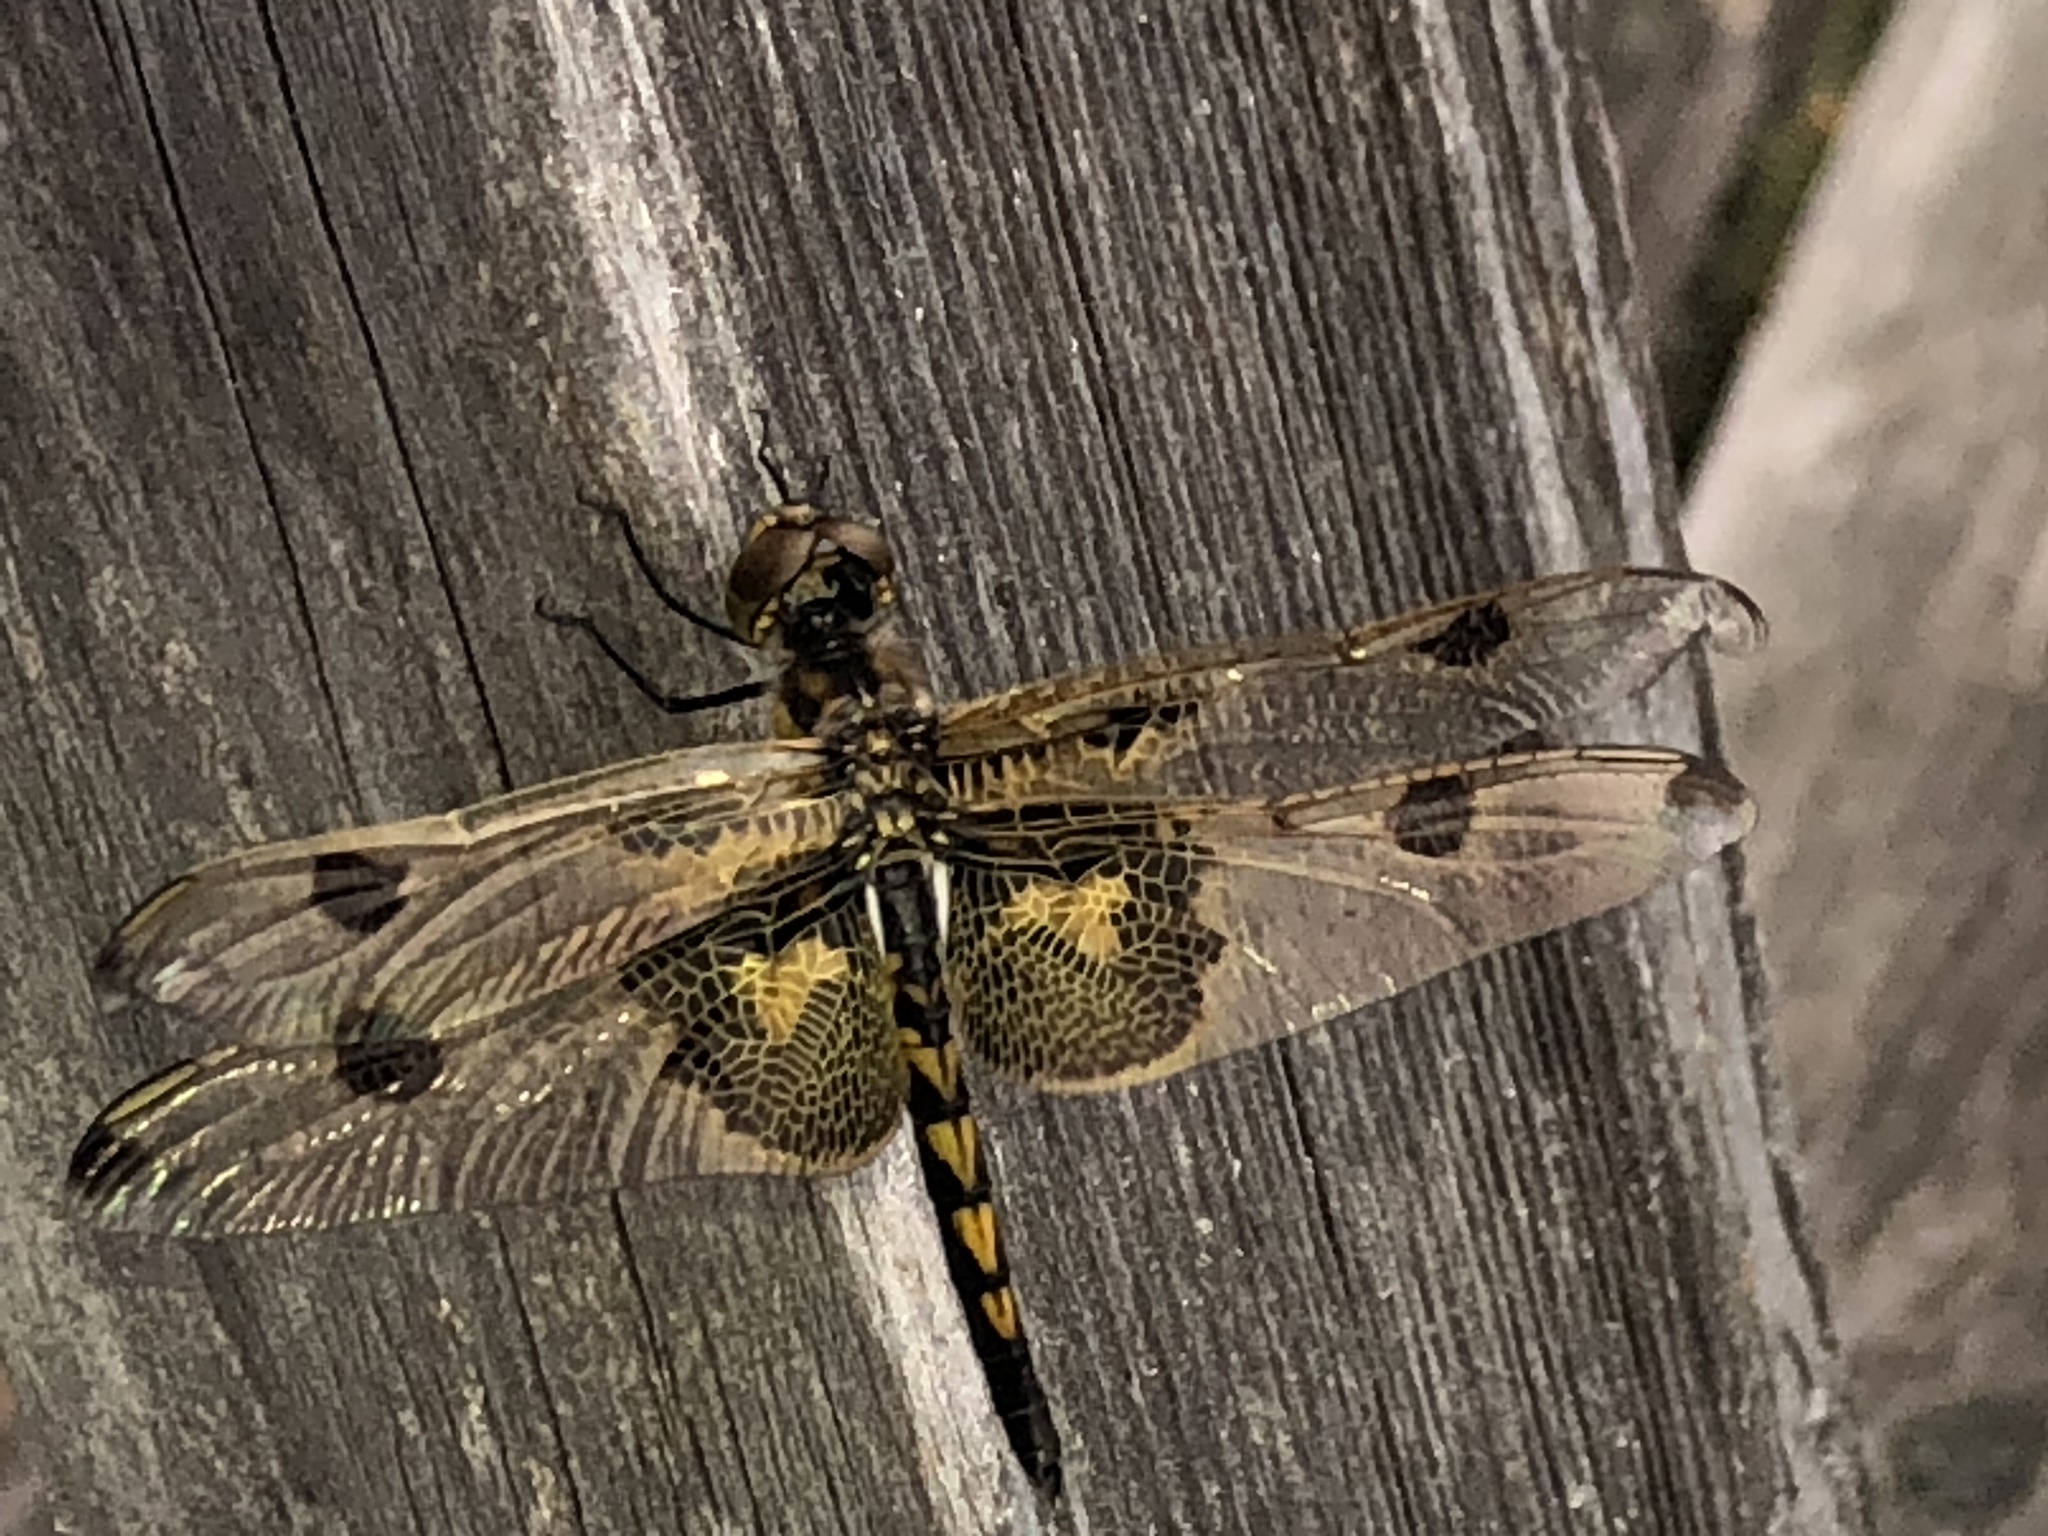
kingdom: Animalia
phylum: Arthropoda
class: Insecta
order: Odonata
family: Libellulidae
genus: Celithemis
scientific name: Celithemis elisa
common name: Calico pennant
